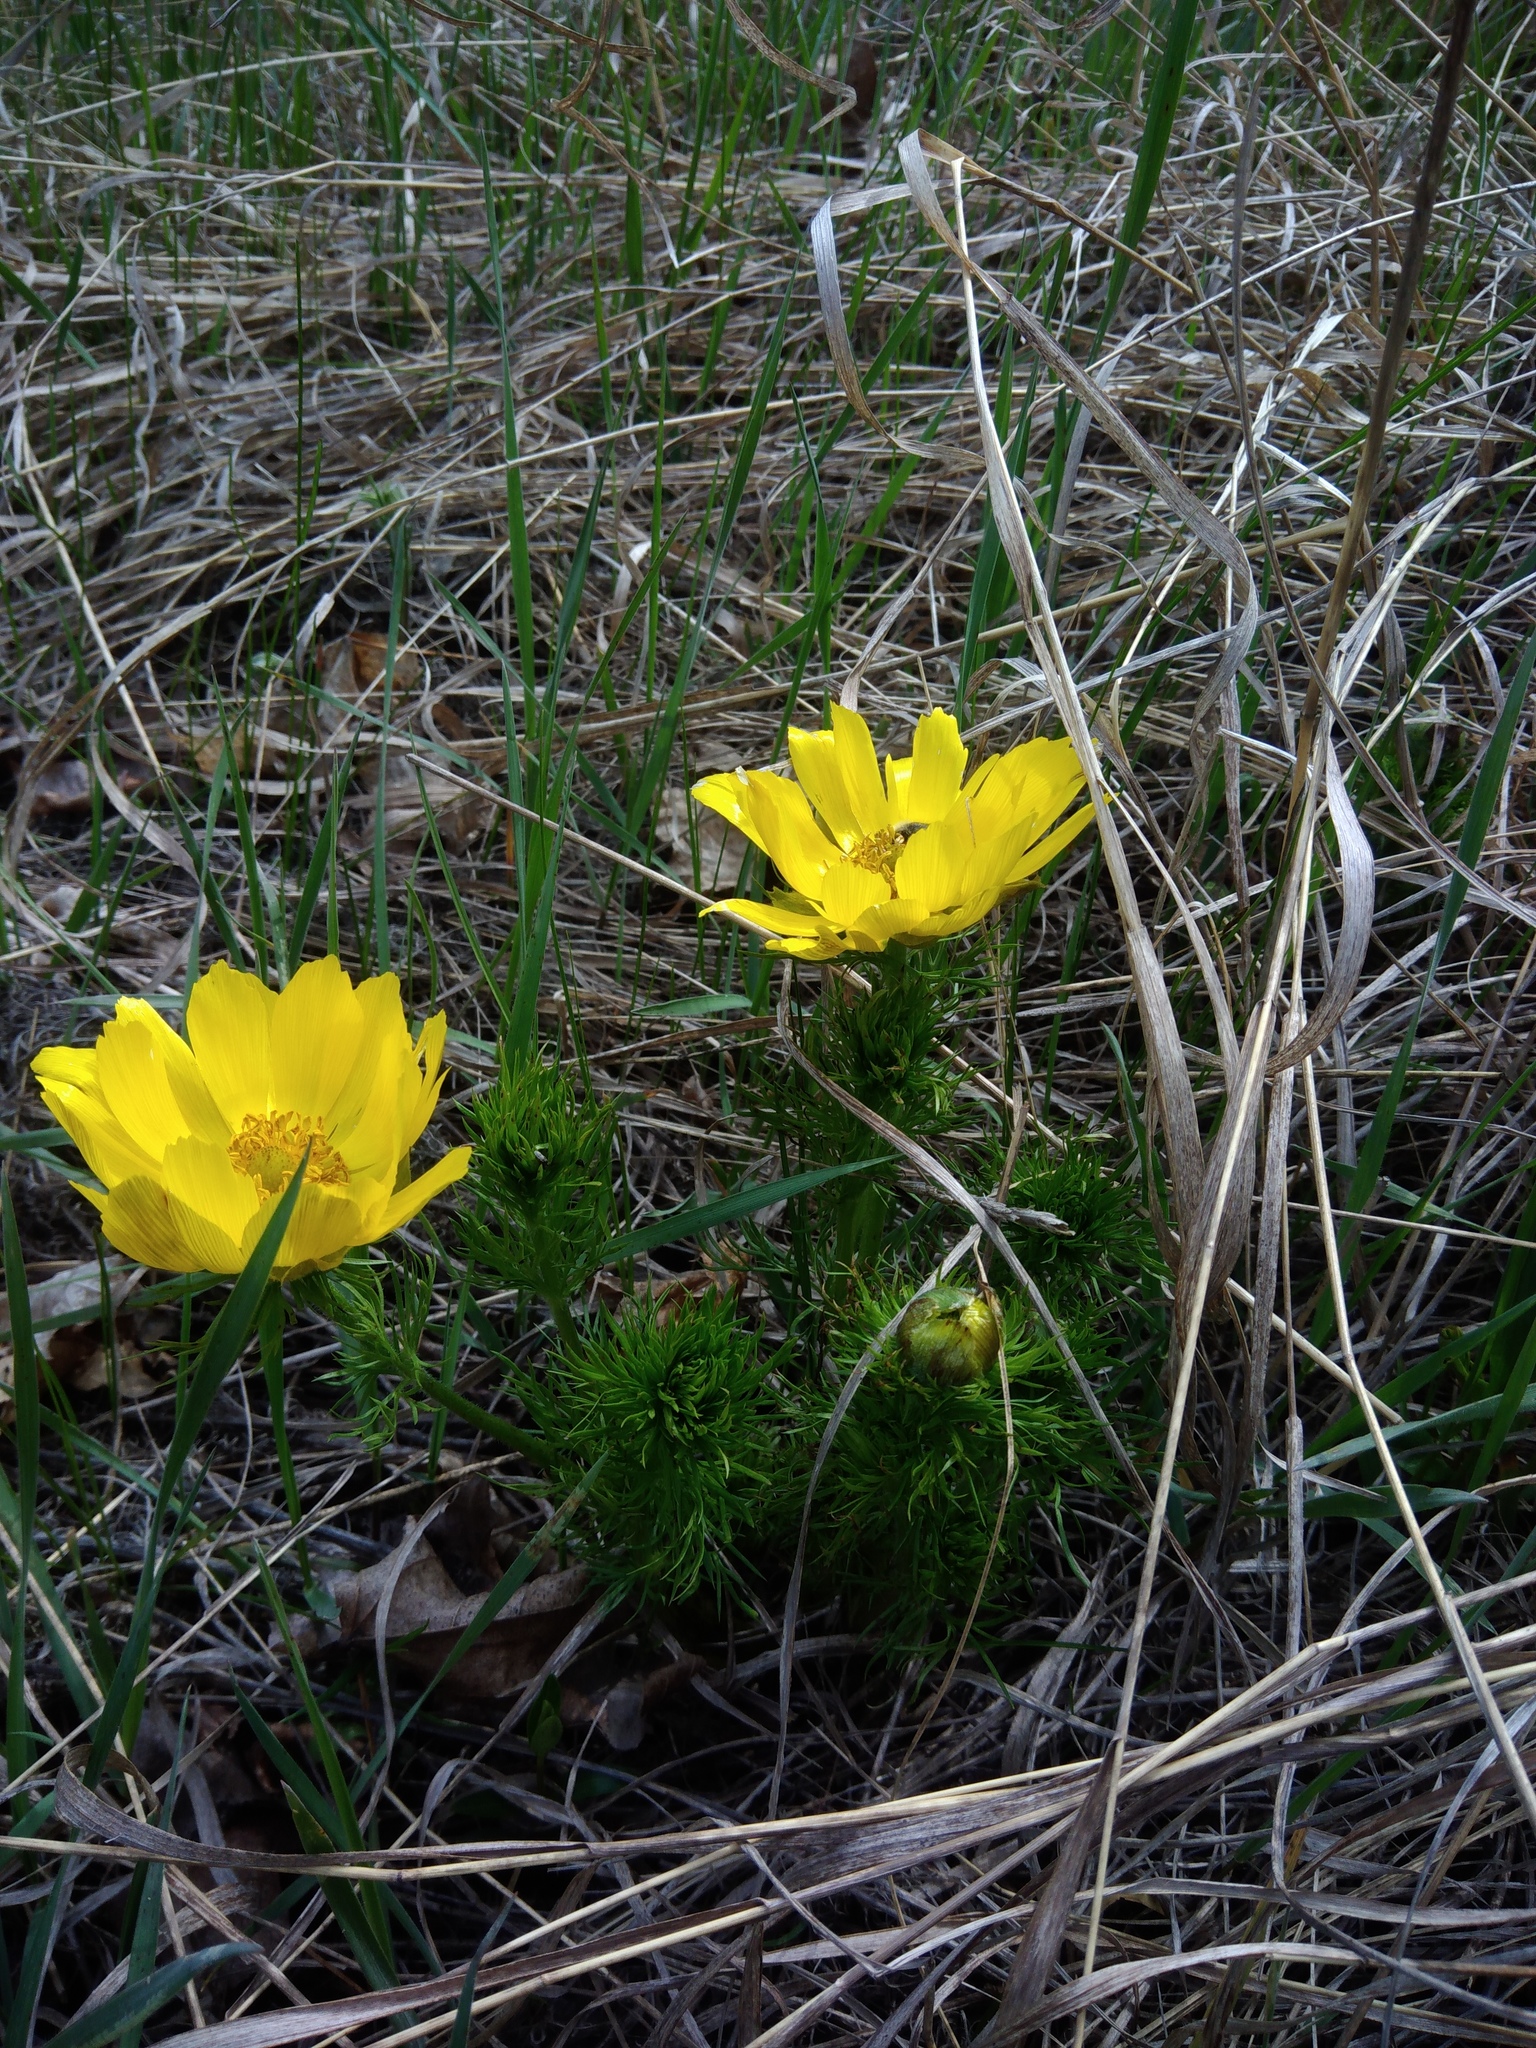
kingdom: Plantae
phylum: Tracheophyta
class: Magnoliopsida
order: Ranunculales
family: Ranunculaceae
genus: Adonis
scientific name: Adonis vernalis
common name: Yellow pheasants-eye
